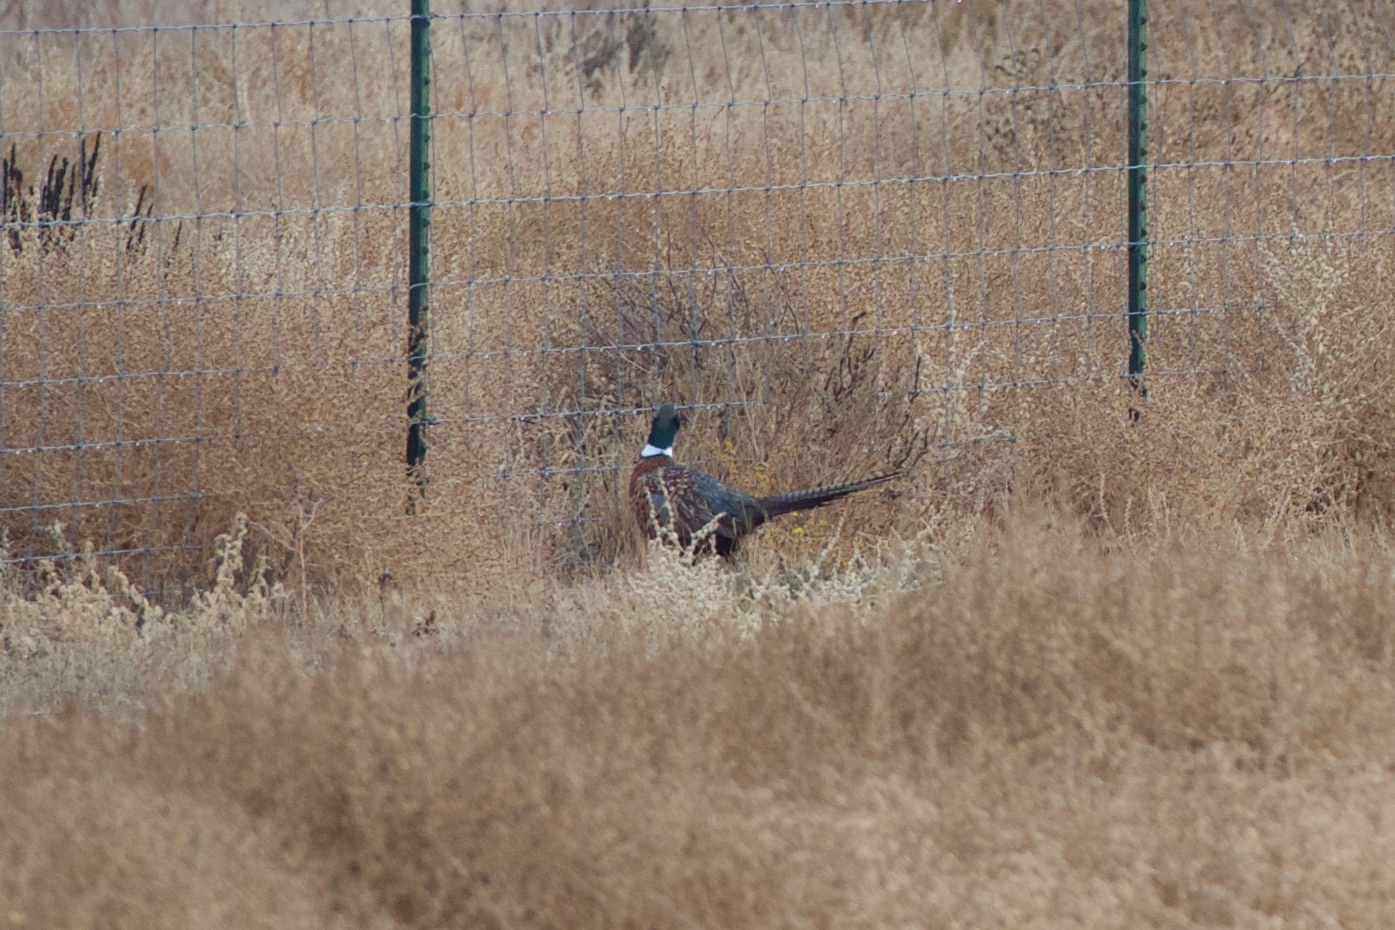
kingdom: Animalia
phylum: Chordata
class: Aves
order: Galliformes
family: Phasianidae
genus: Phasianus
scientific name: Phasianus colchicus
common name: Common pheasant
